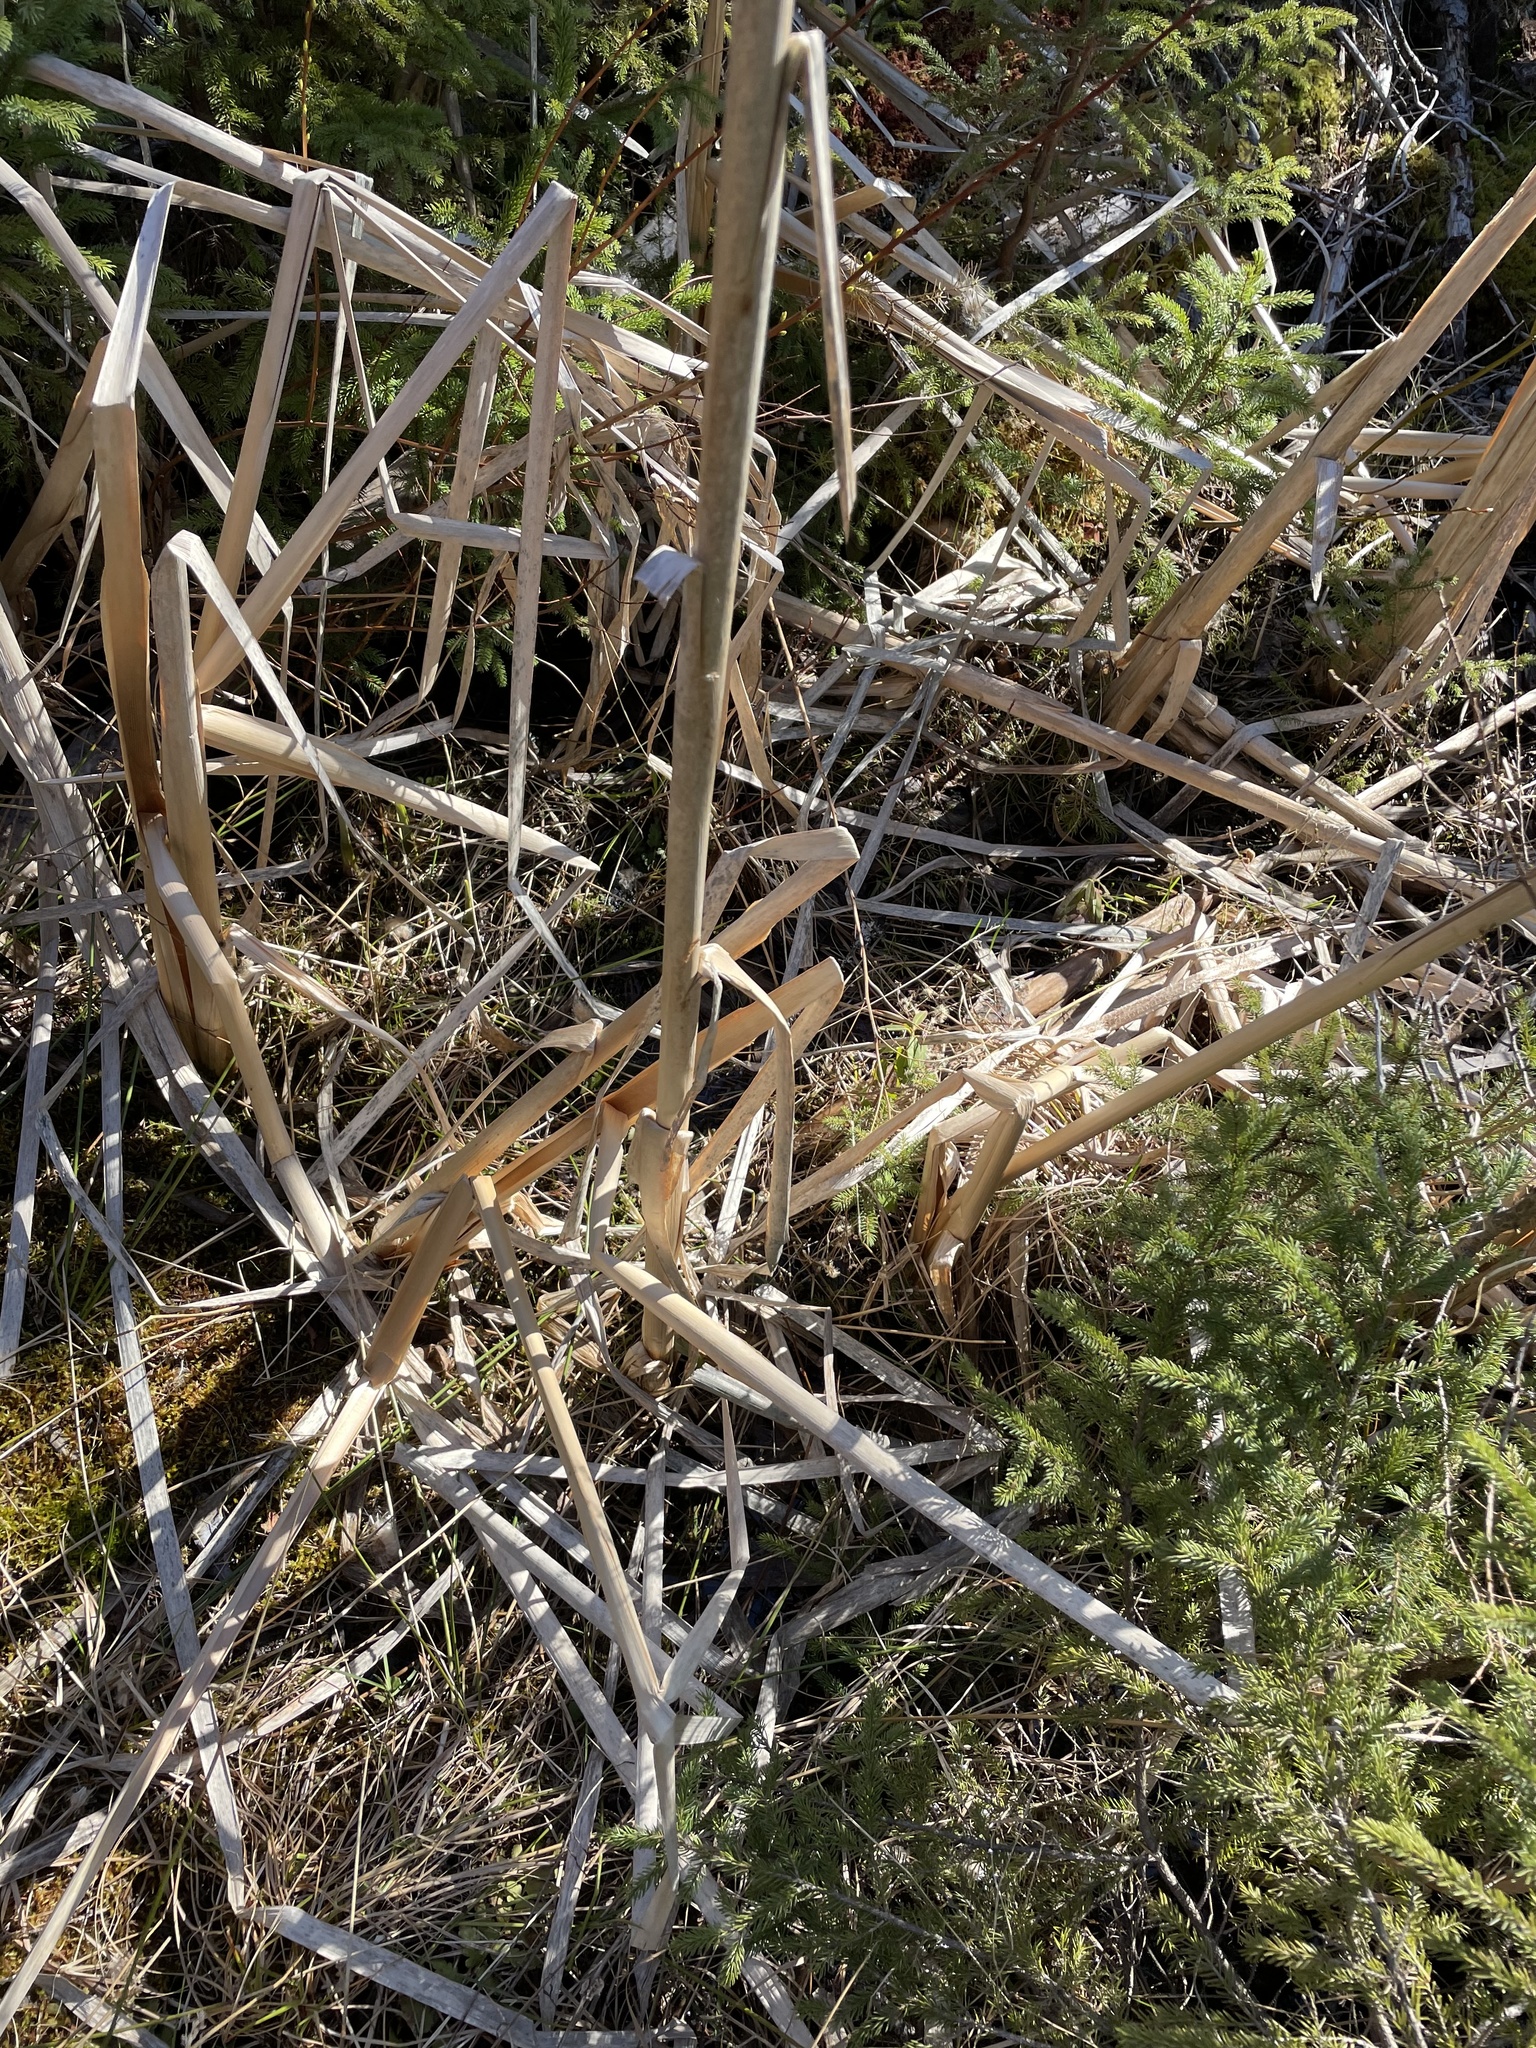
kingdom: Plantae
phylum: Tracheophyta
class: Liliopsida
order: Poales
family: Typhaceae
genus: Typha
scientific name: Typha latifolia
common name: Broadleaf cattail
